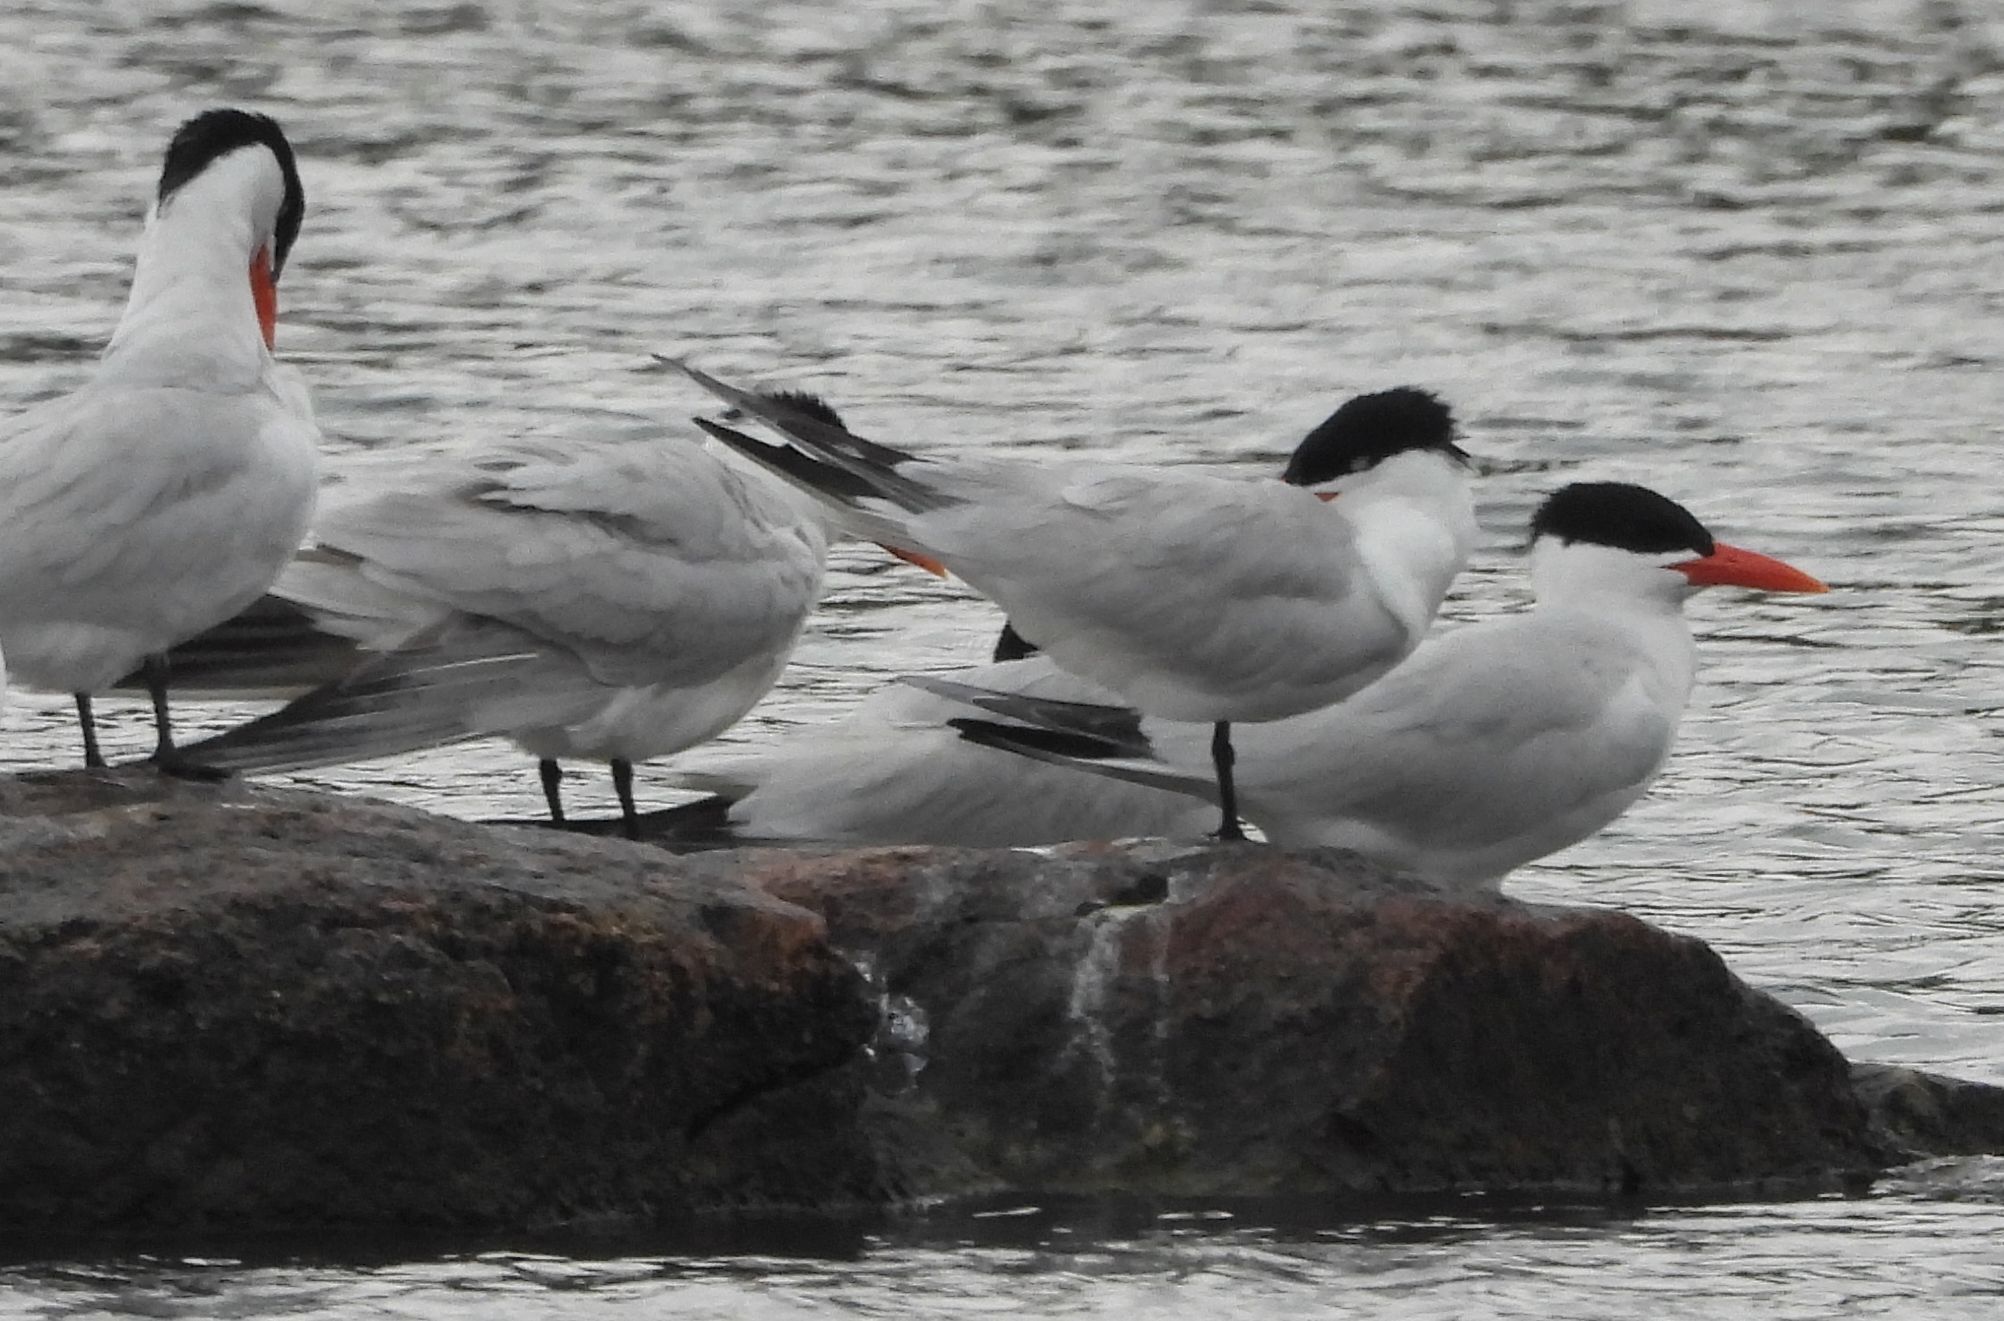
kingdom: Animalia
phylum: Chordata
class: Aves
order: Charadriiformes
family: Laridae
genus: Hydroprogne
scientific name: Hydroprogne caspia
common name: Caspian tern
